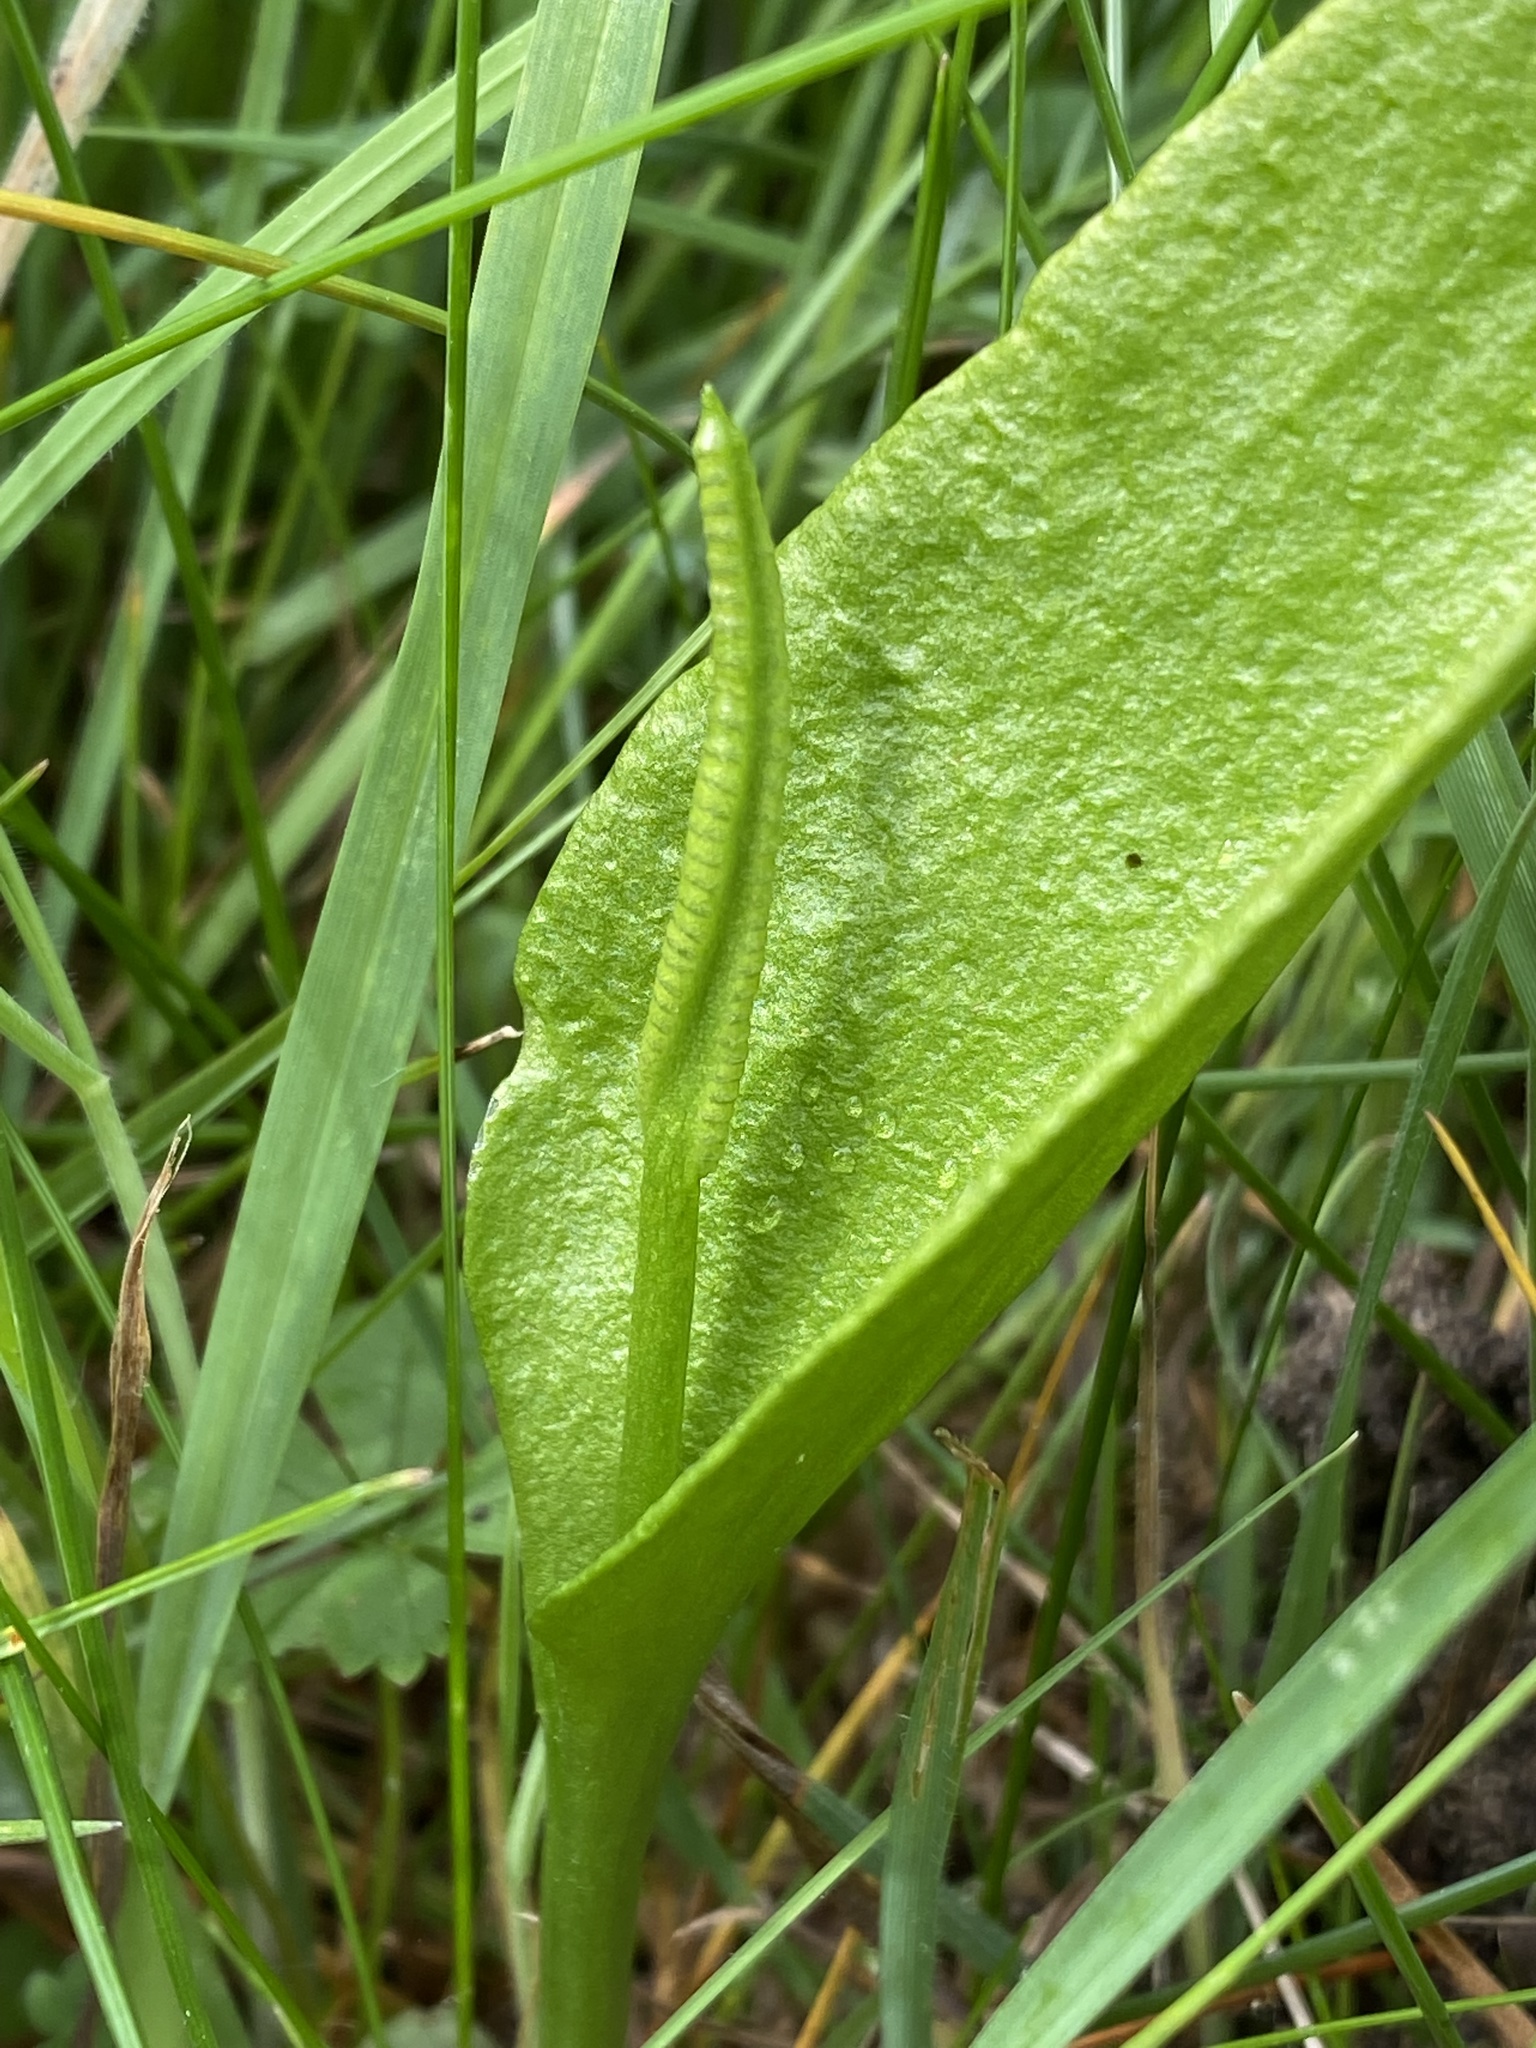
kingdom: Plantae
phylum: Tracheophyta
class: Polypodiopsida
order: Ophioglossales
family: Ophioglossaceae
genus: Ophioglossum
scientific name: Ophioglossum vulgatum
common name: Adder's-tongue
